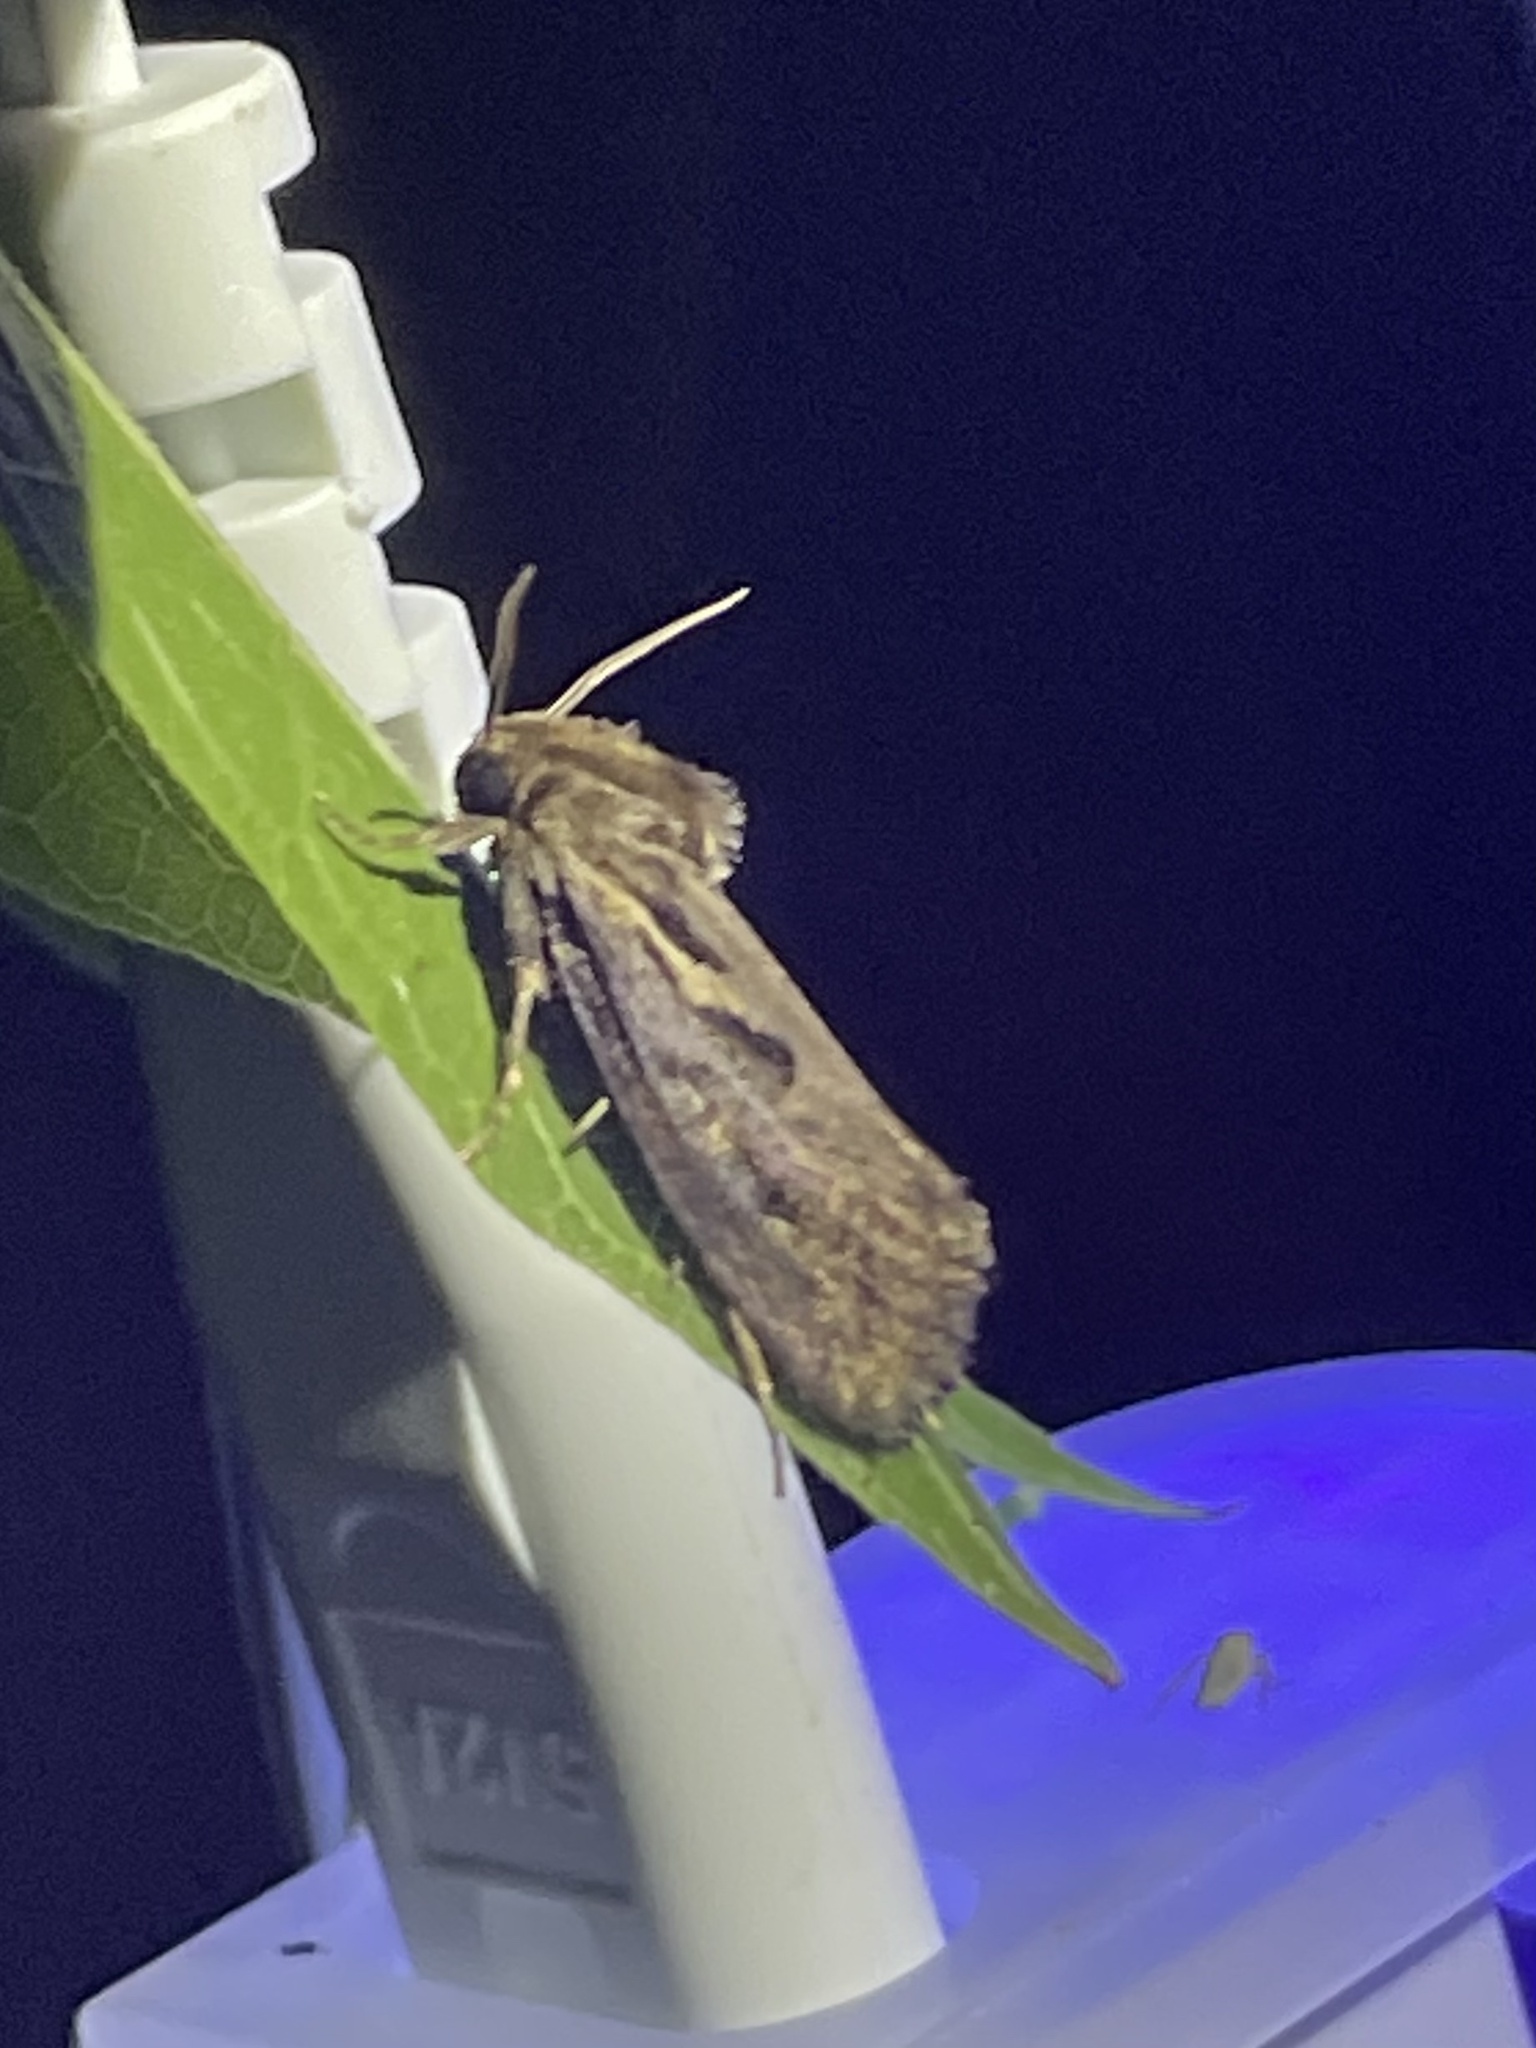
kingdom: Animalia
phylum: Arthropoda
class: Insecta
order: Lepidoptera
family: Tineidae
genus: Acrolophus
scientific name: Acrolophus popeanella
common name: Clemens' grass tubeworm moth
